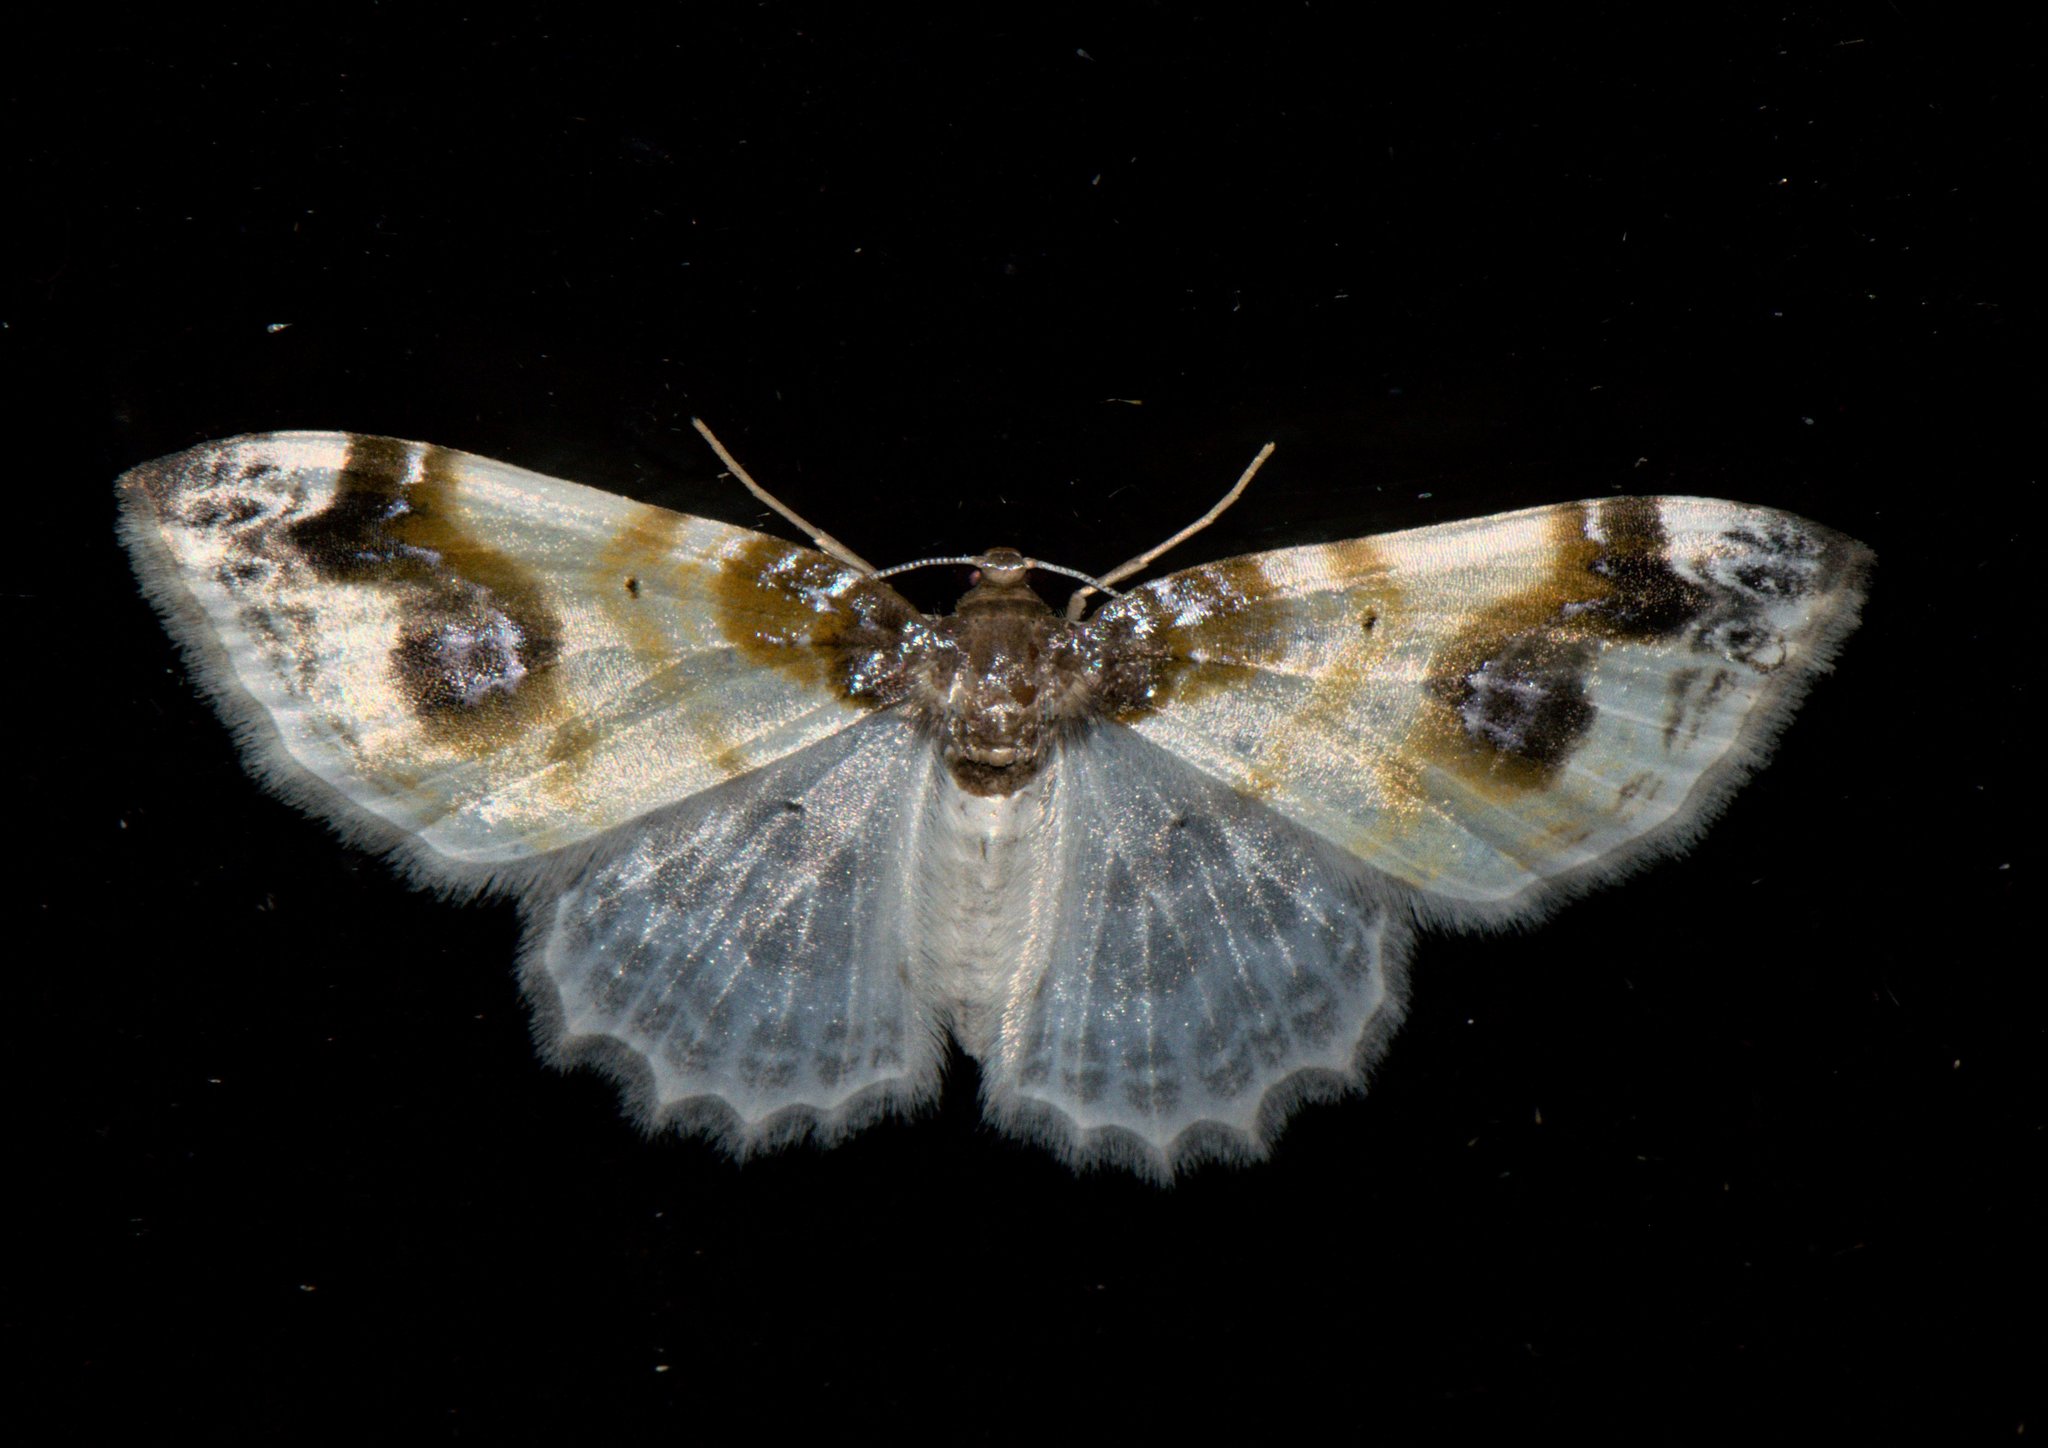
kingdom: Animalia
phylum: Arthropoda
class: Insecta
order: Lepidoptera
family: Geometridae
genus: Agnibesa
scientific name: Agnibesa pictaria
